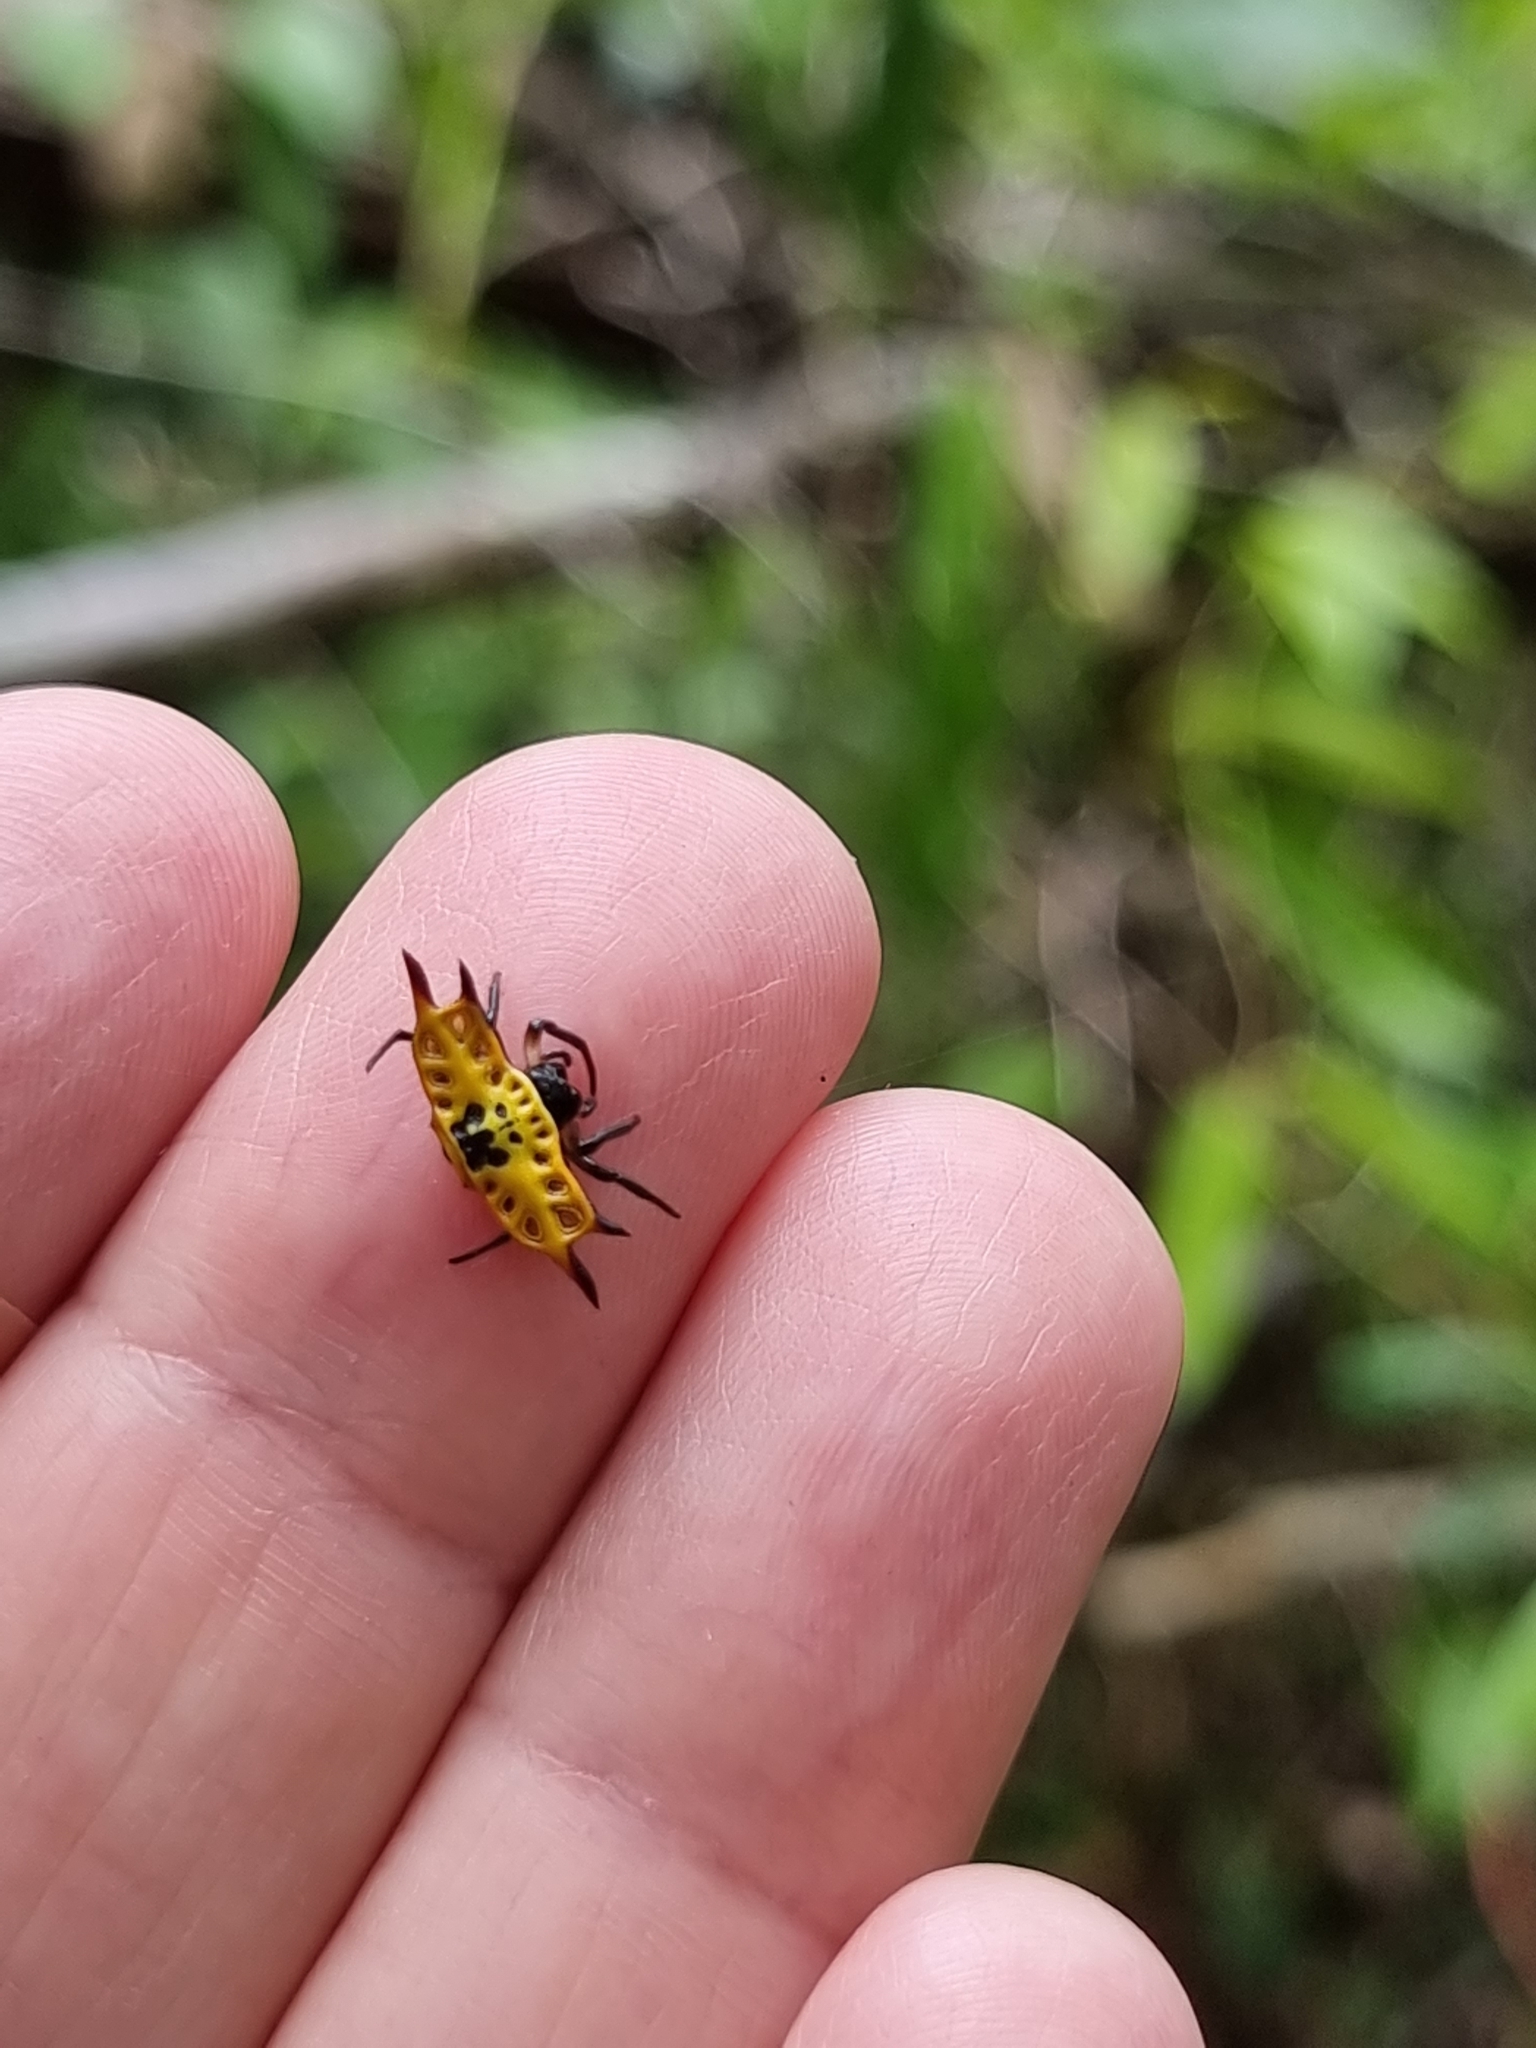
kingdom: Animalia
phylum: Arthropoda
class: Arachnida
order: Araneae
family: Araneidae
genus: Gasteracantha
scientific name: Gasteracantha quadrispinosa
